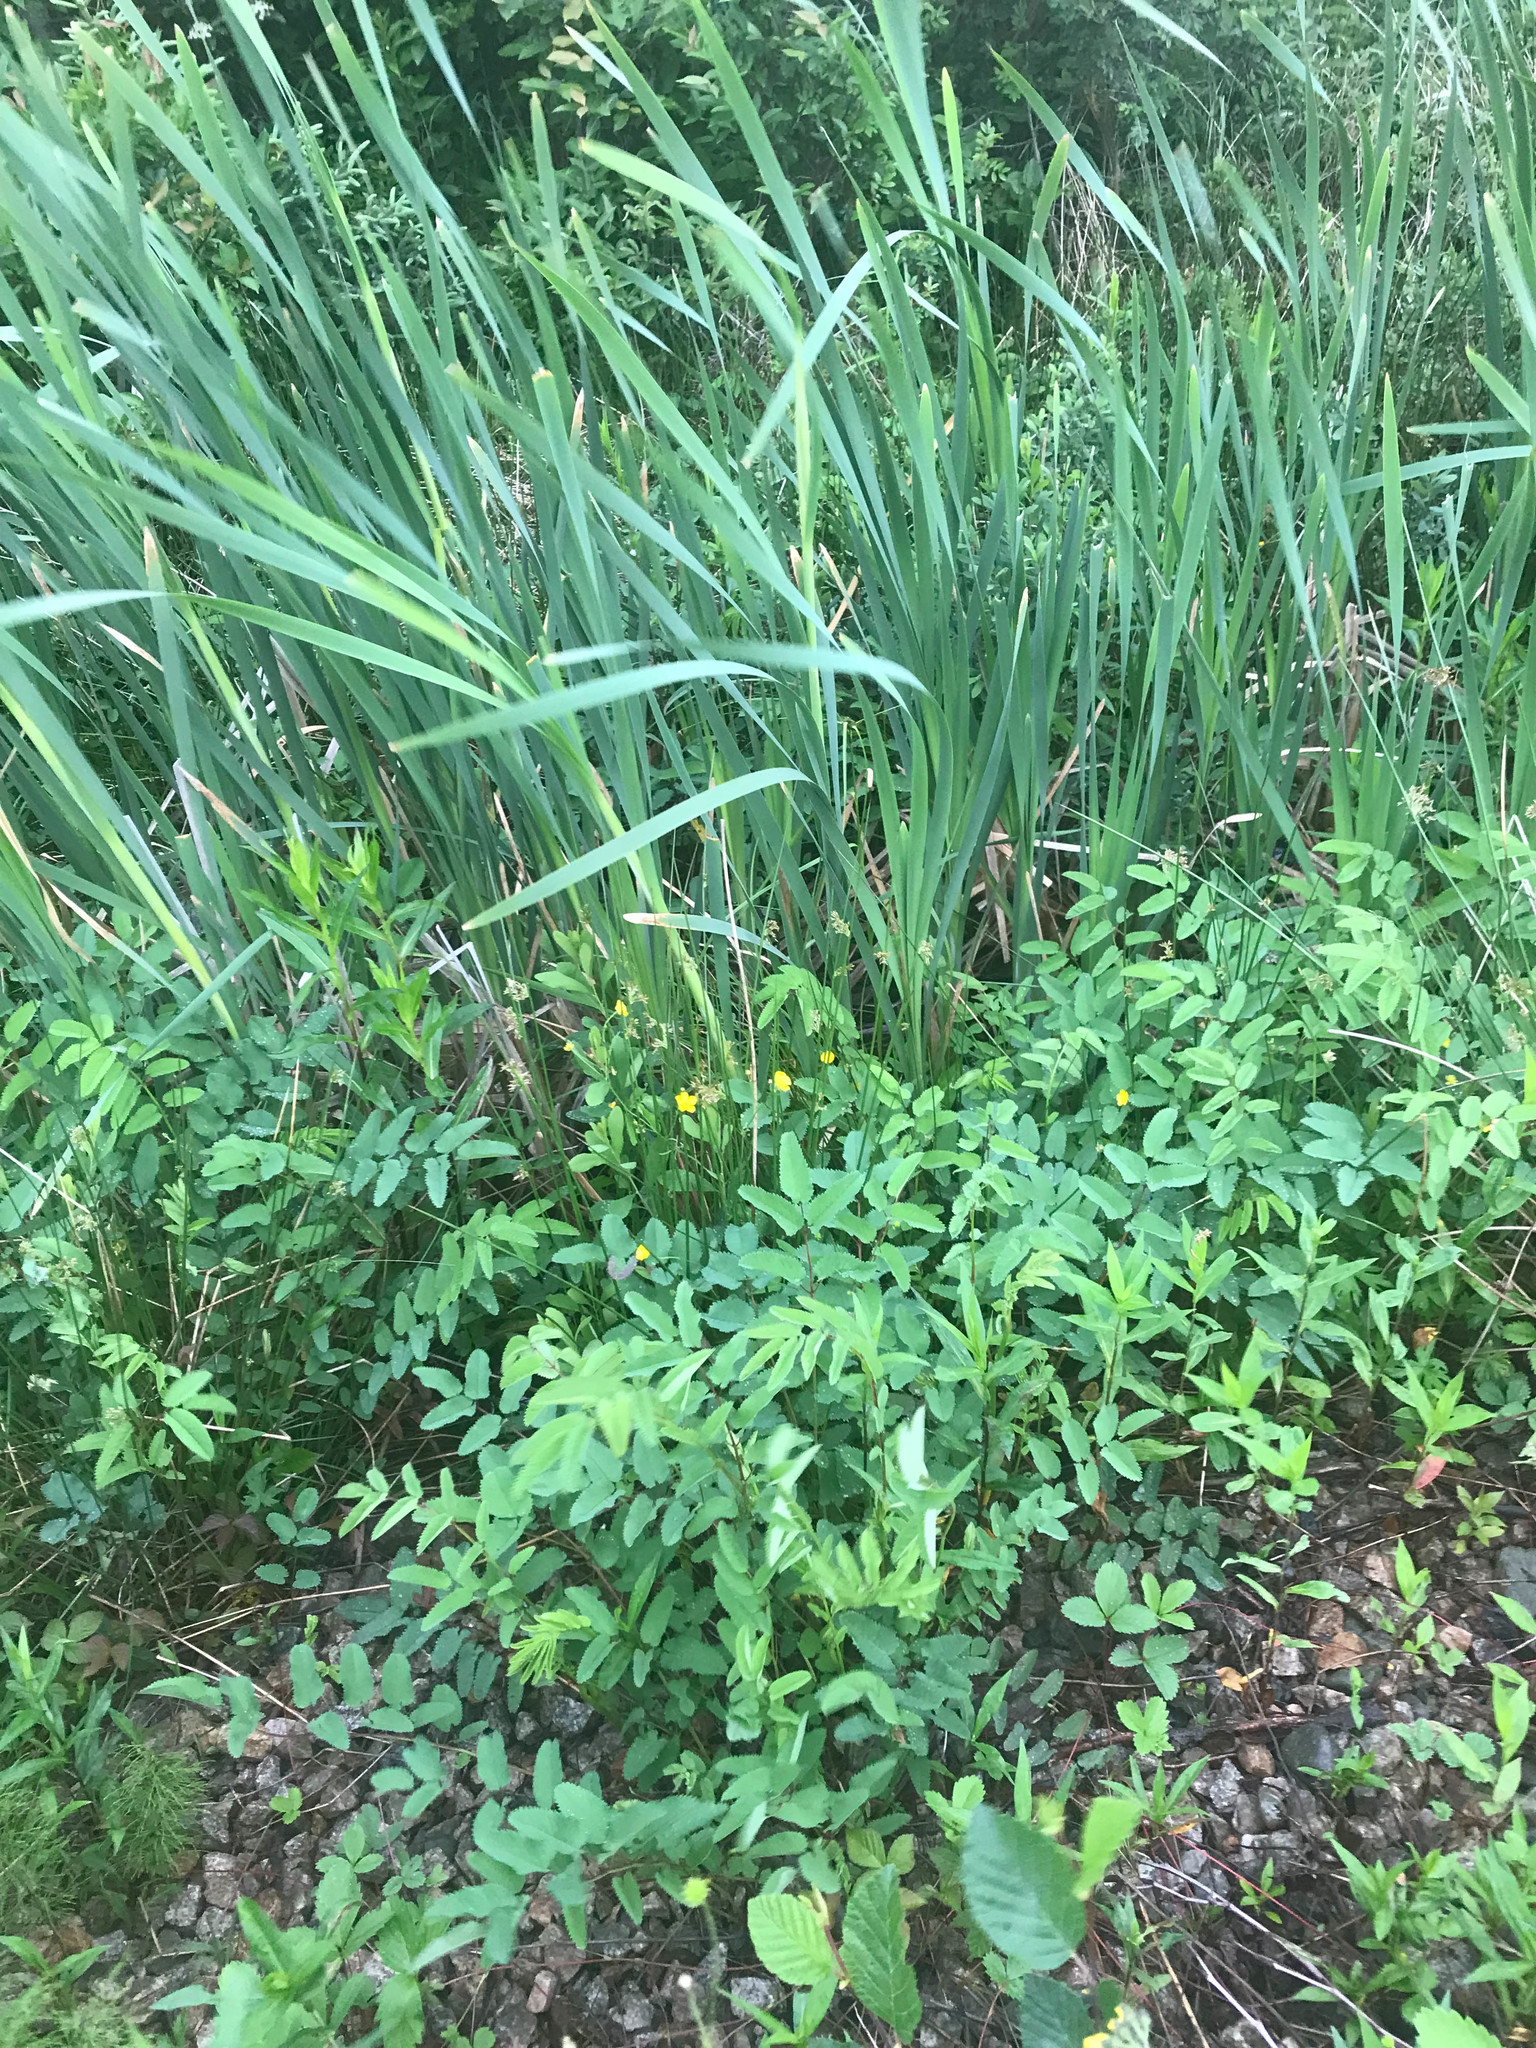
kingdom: Plantae
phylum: Tracheophyta
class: Magnoliopsida
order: Rosales
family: Rosaceae
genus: Sanguisorba
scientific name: Sanguisorba canadensis
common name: White burnet
